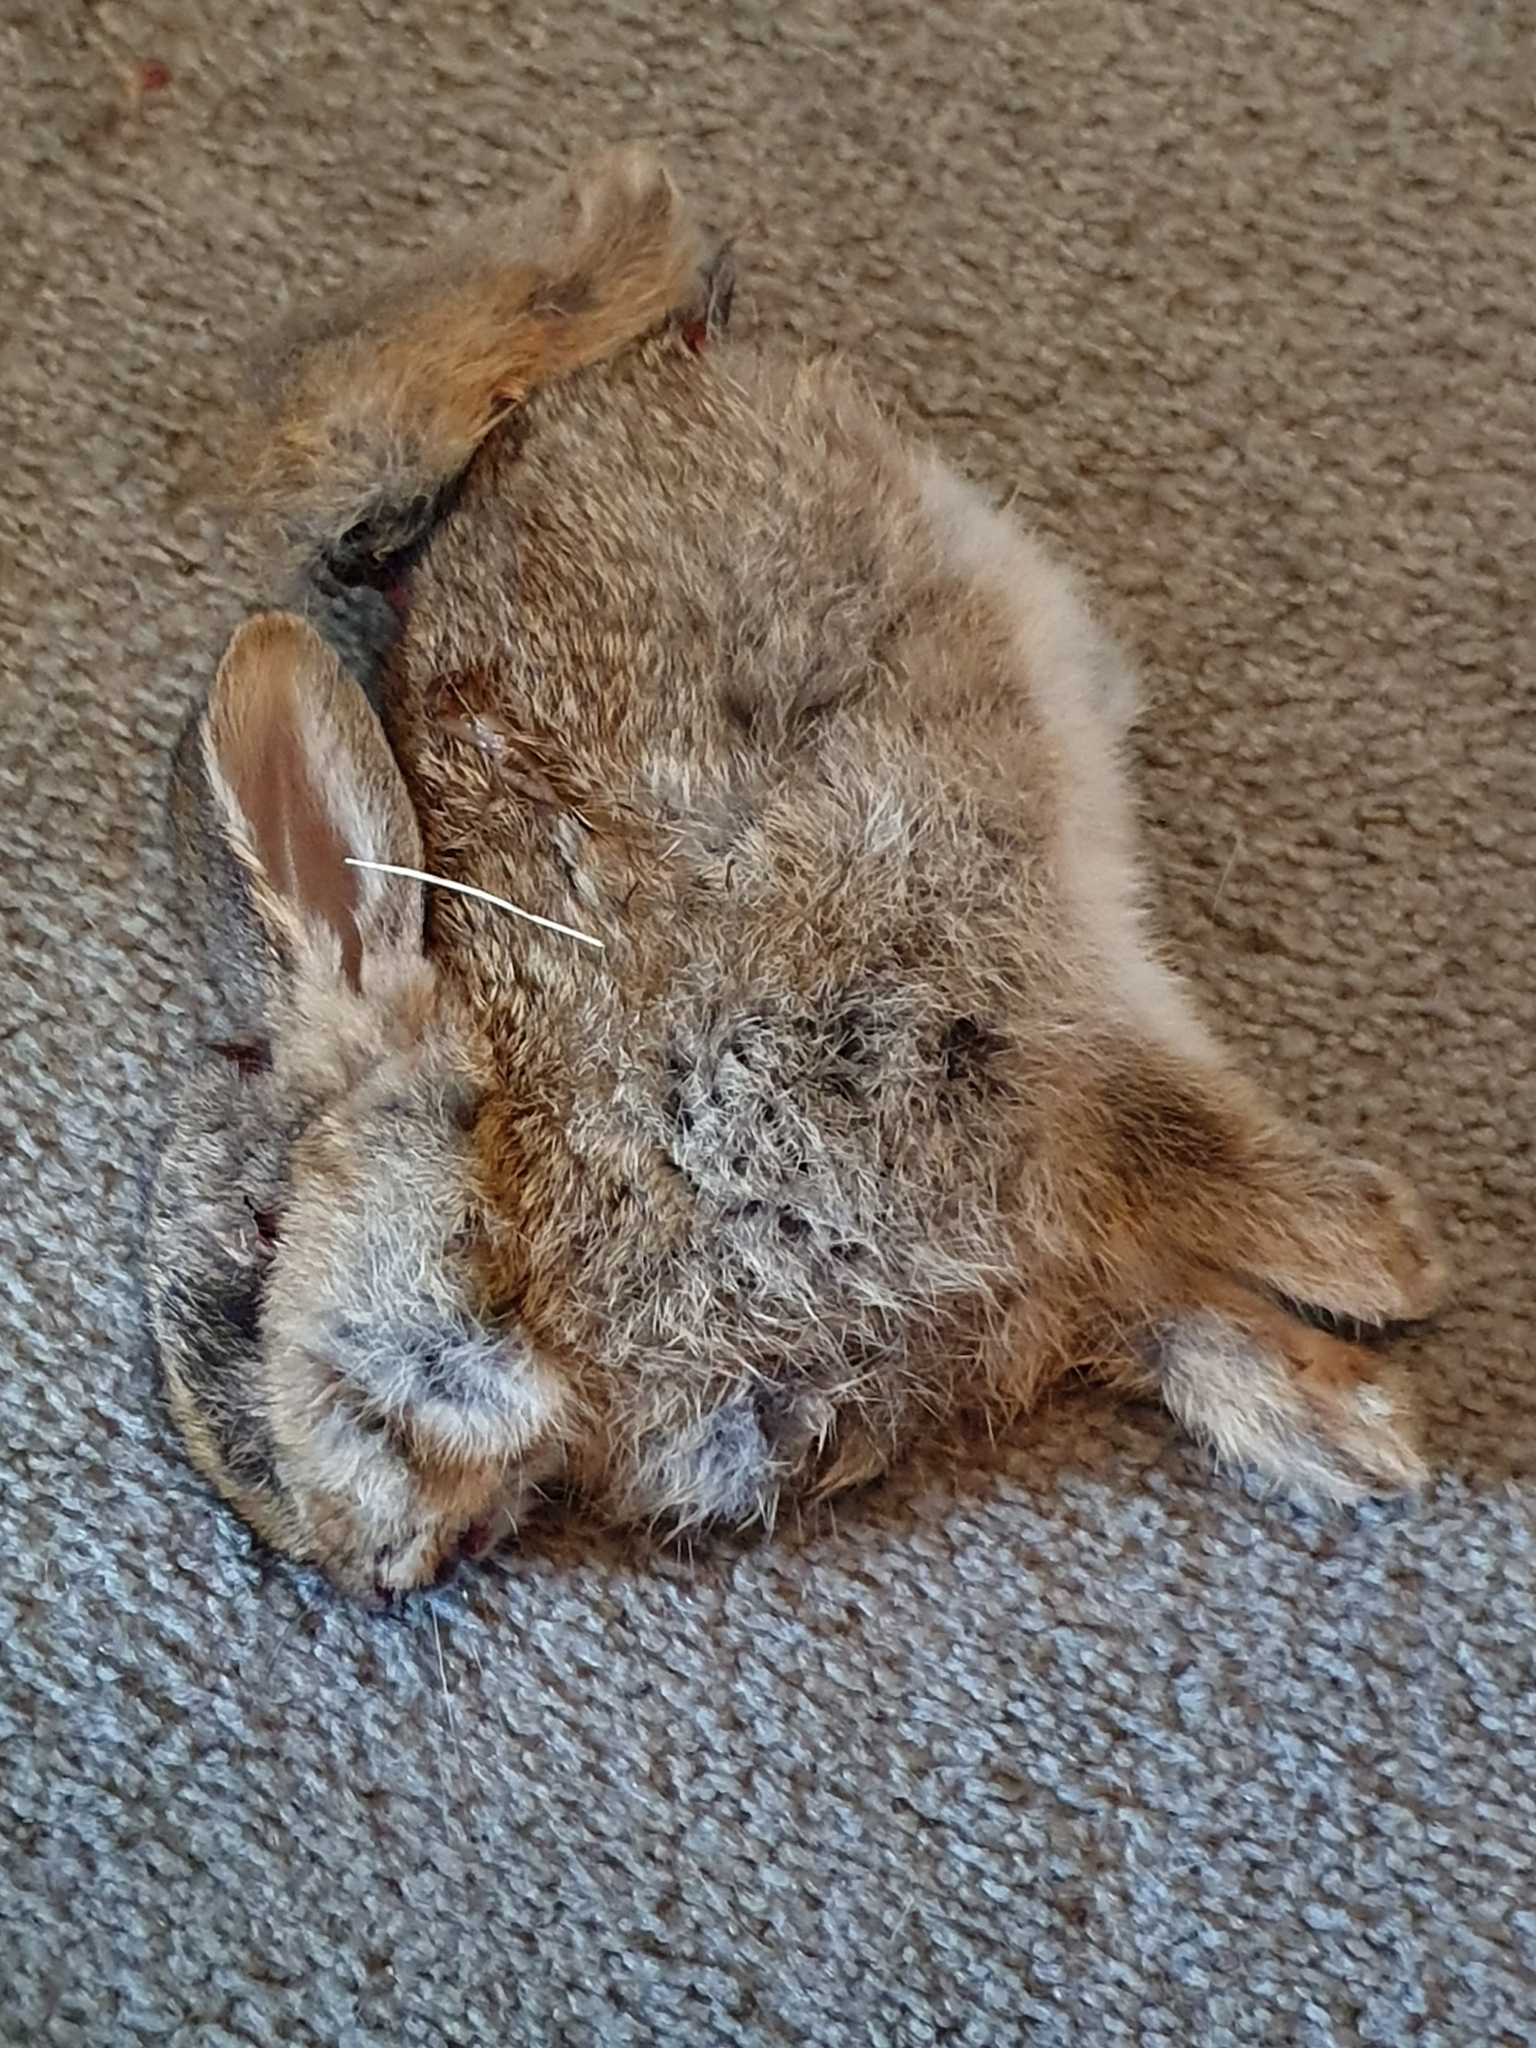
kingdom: Animalia
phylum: Chordata
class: Mammalia
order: Lagomorpha
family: Leporidae
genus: Oryctolagus
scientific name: Oryctolagus cuniculus
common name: European rabbit
